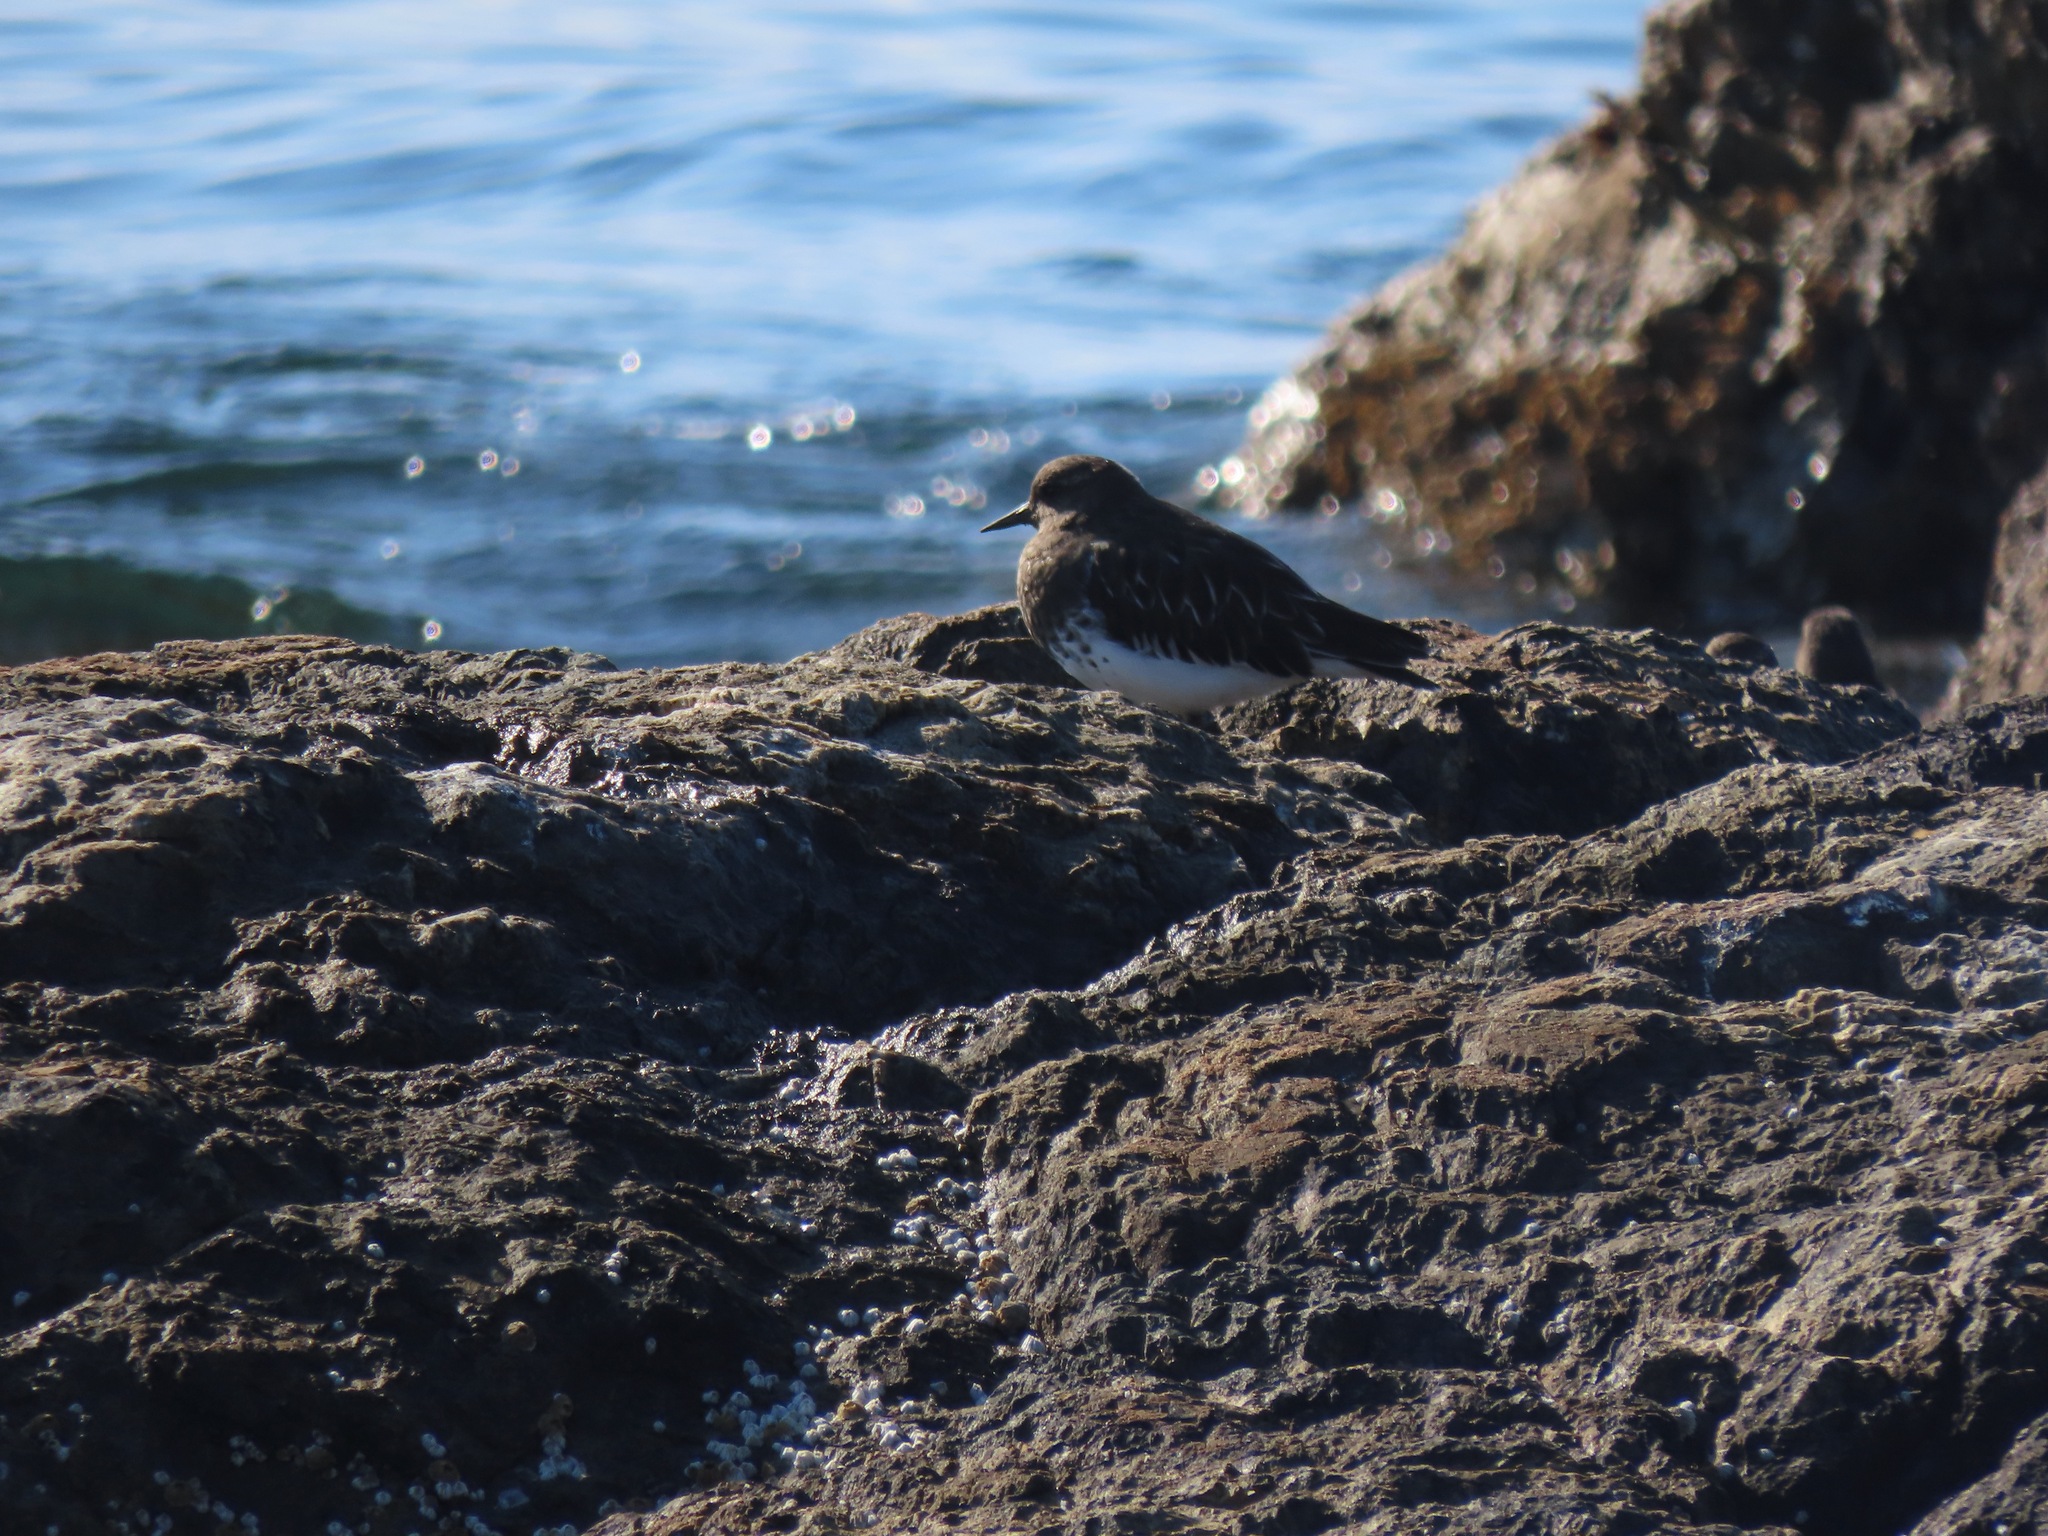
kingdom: Animalia
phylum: Chordata
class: Aves
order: Charadriiformes
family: Scolopacidae
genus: Arenaria
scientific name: Arenaria melanocephala
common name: Black turnstone
